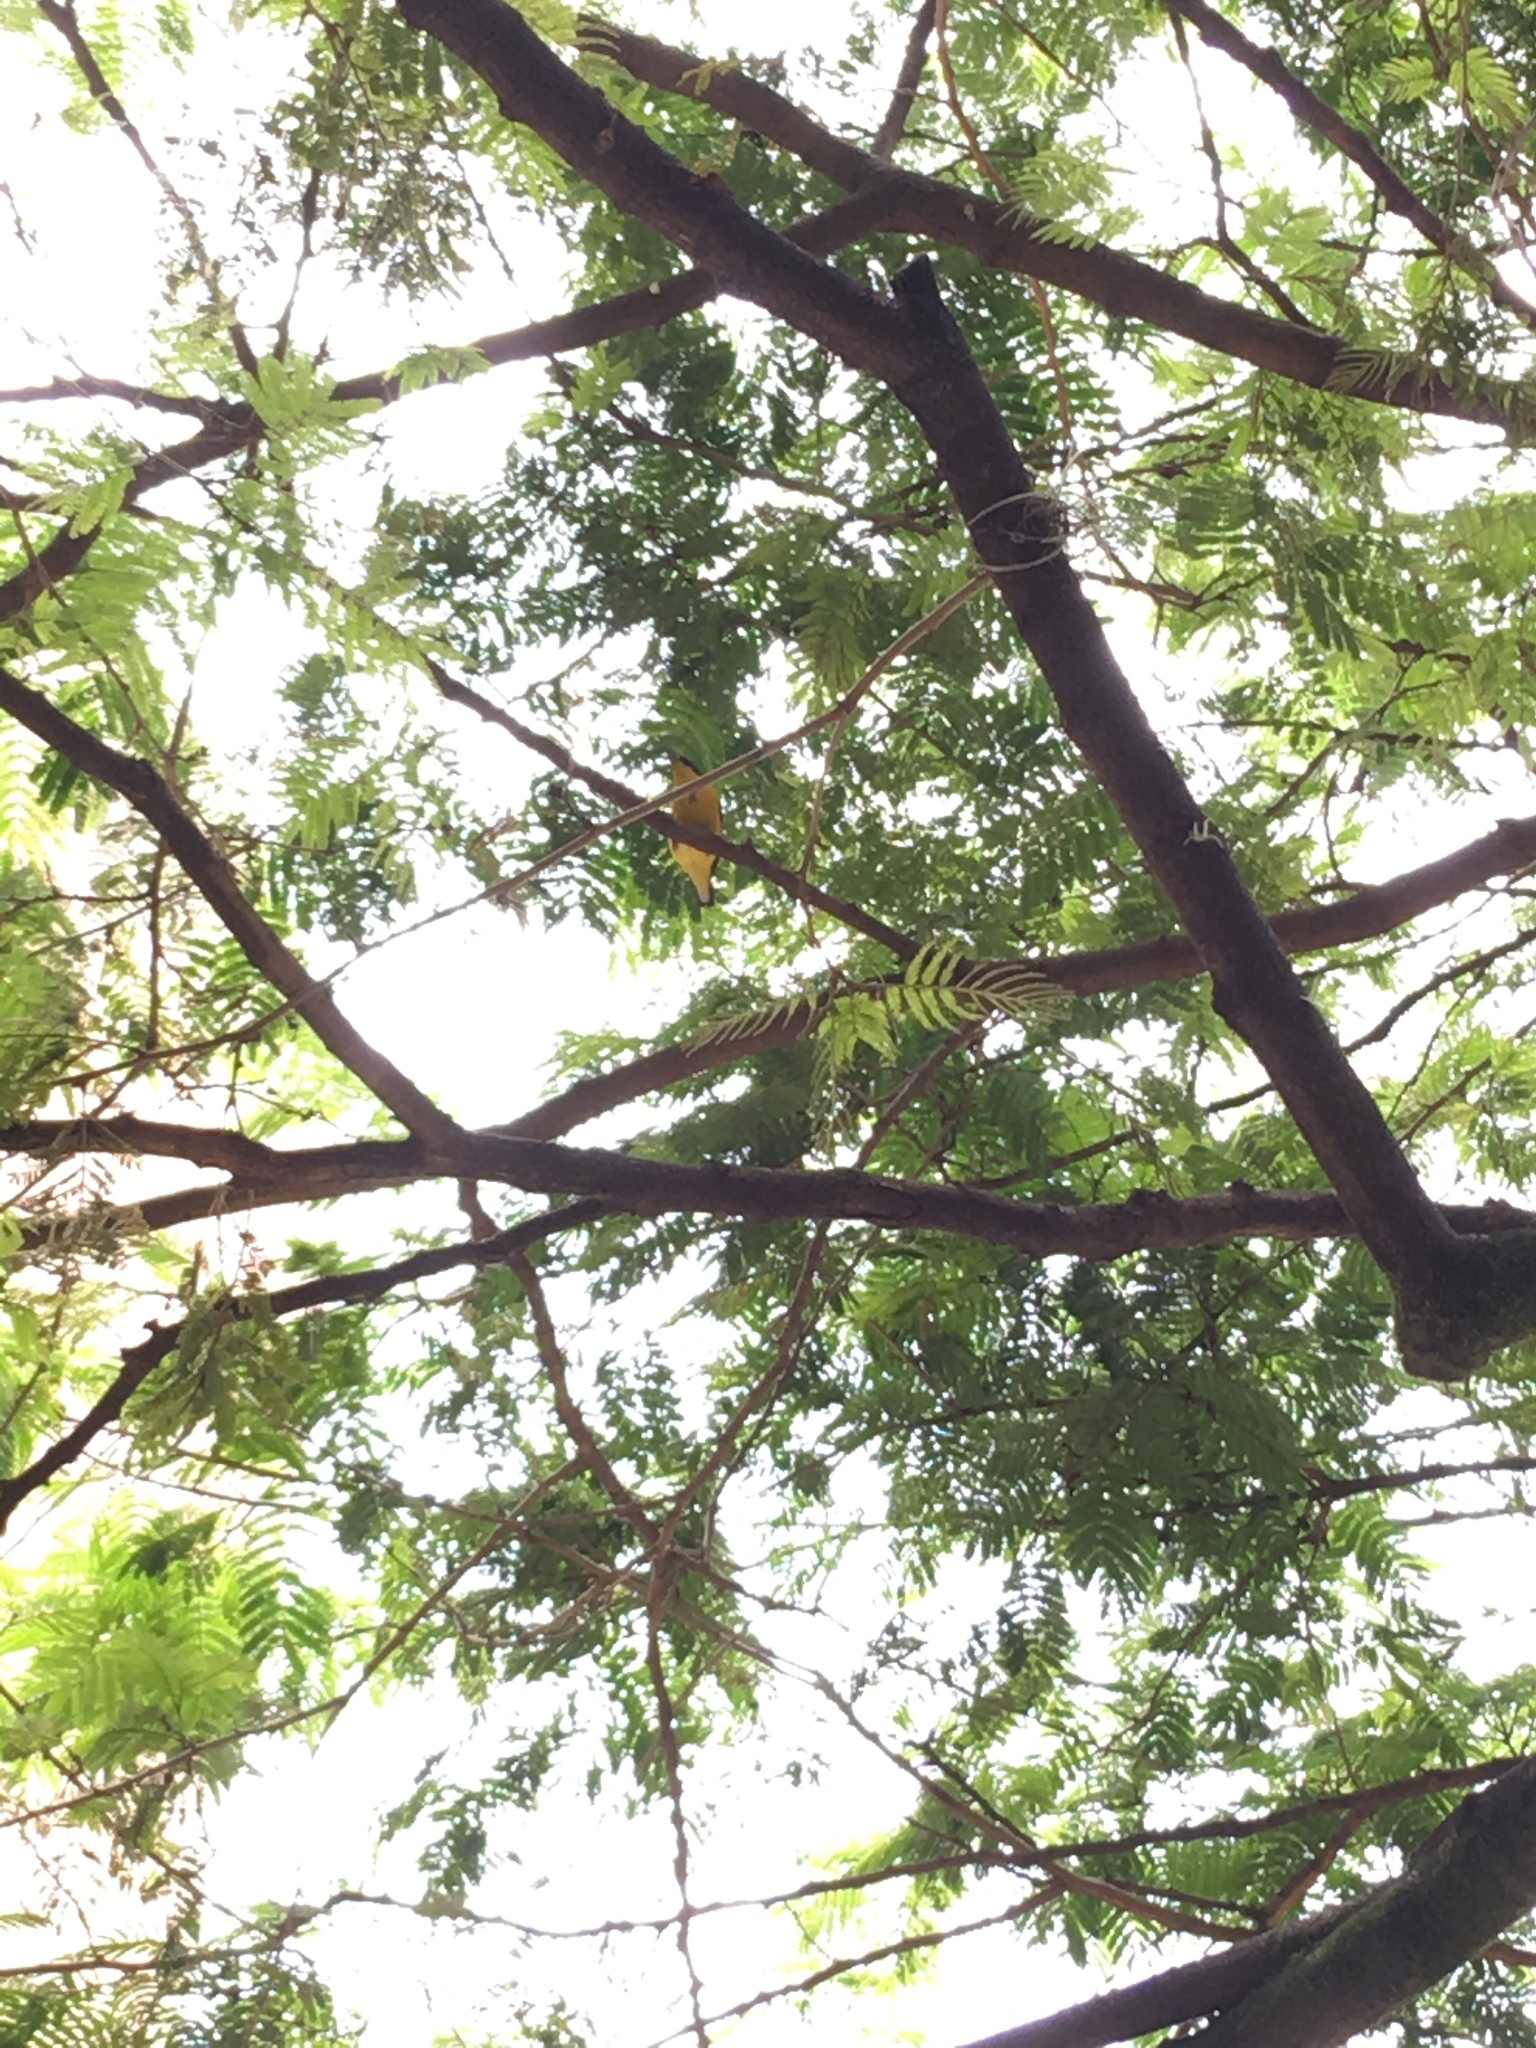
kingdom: Animalia
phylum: Chordata
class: Aves
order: Passeriformes
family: Fringillidae
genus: Euphonia
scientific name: Euphonia laniirostris
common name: Thick-billed euphonia
